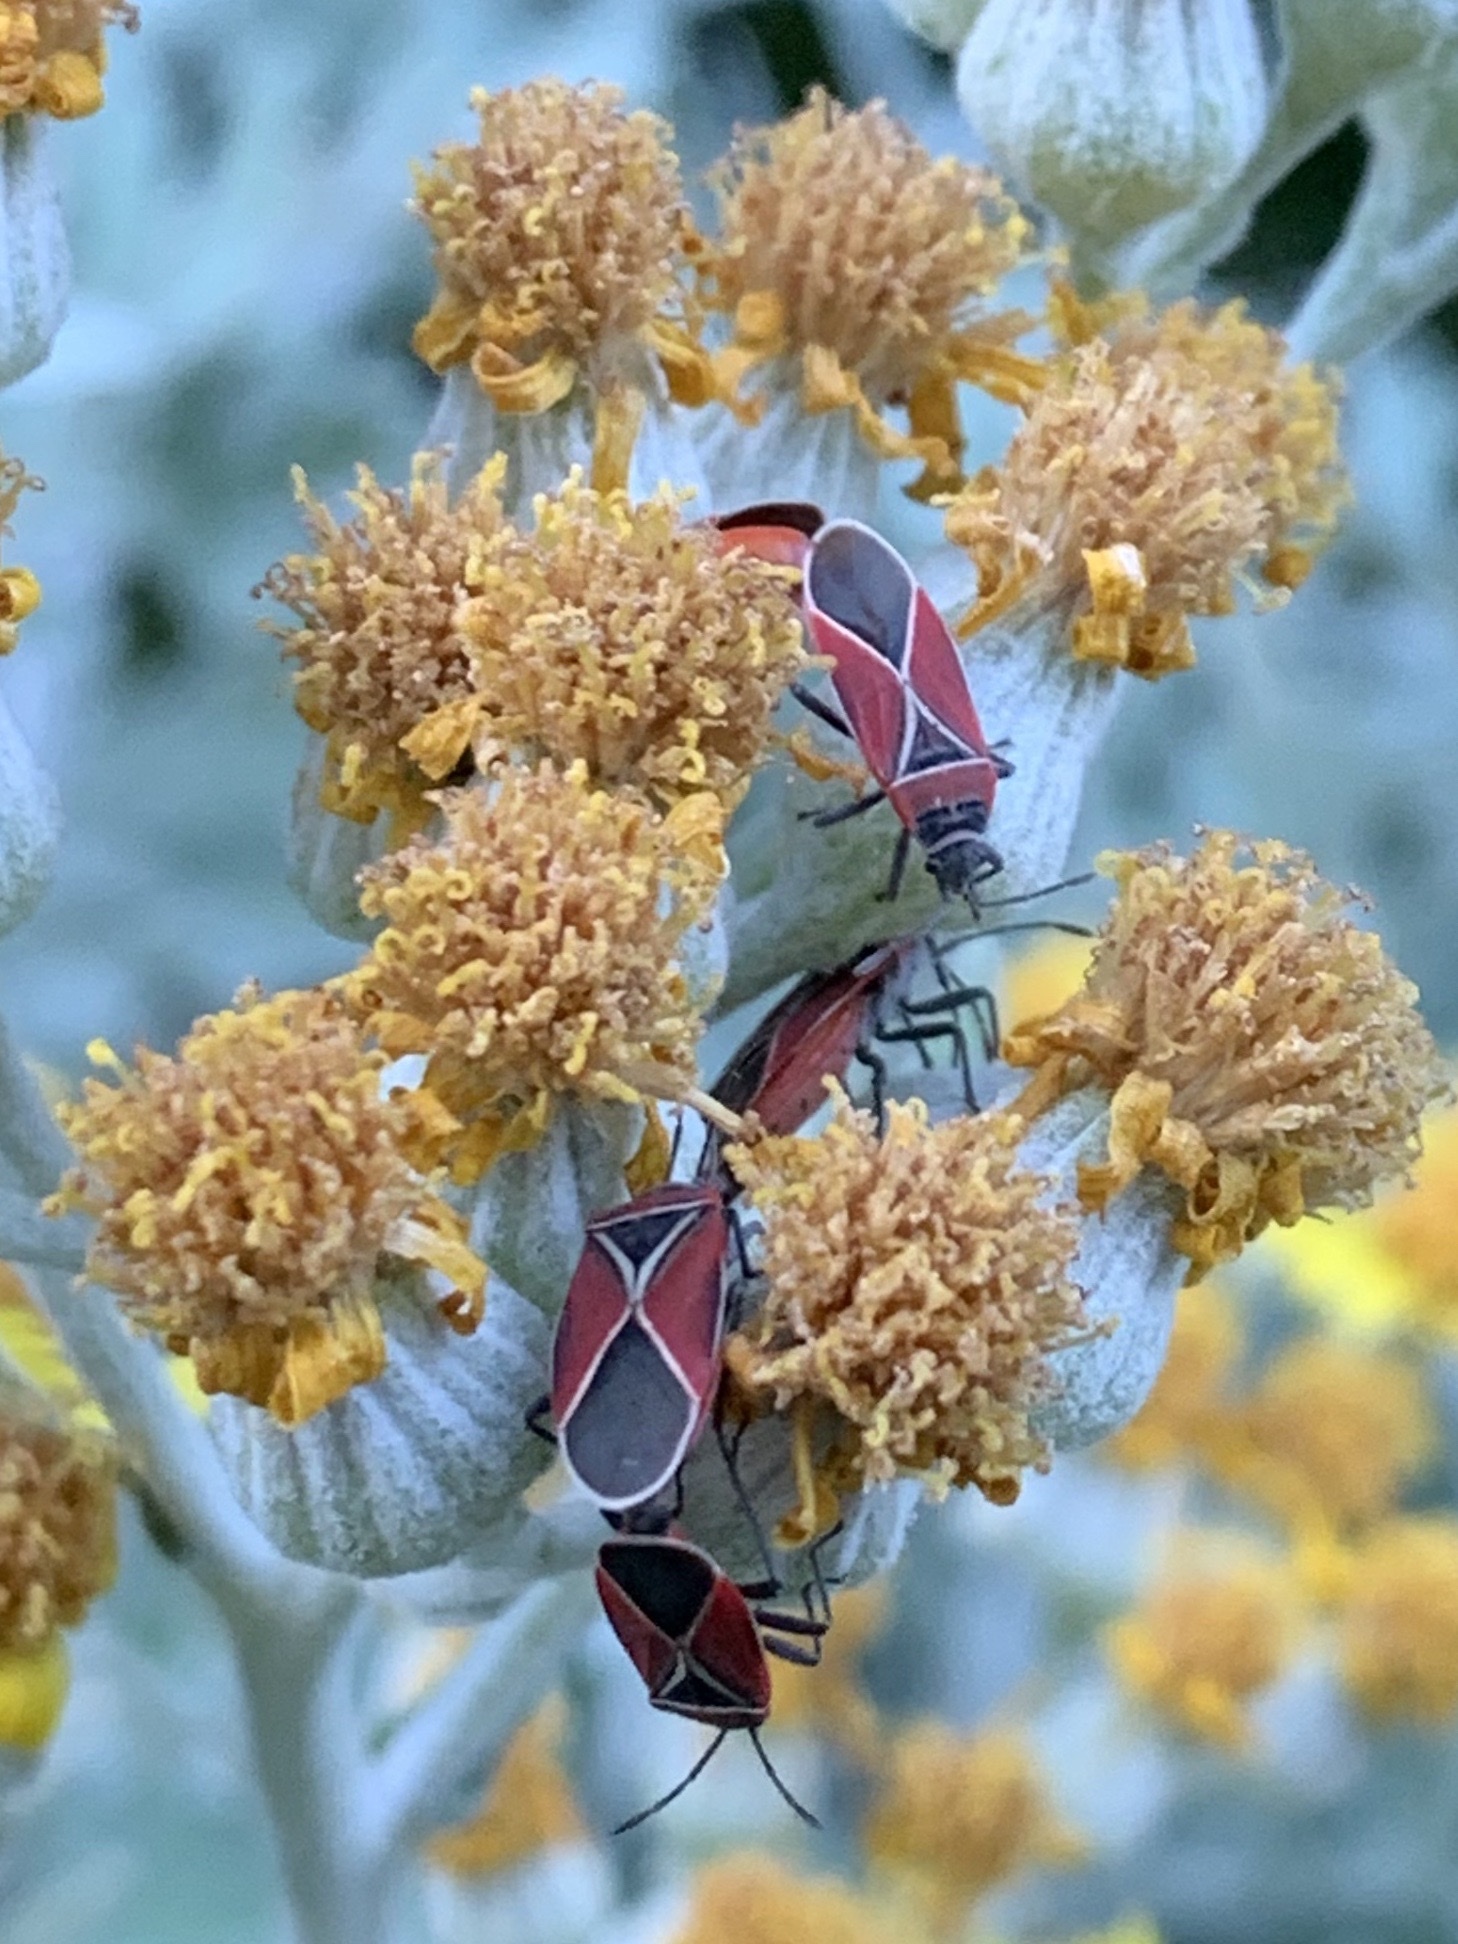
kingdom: Animalia
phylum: Arthropoda
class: Insecta
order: Hemiptera
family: Lygaeidae
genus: Neacoryphus
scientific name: Neacoryphus bicrucis
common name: Lygaeid bug
